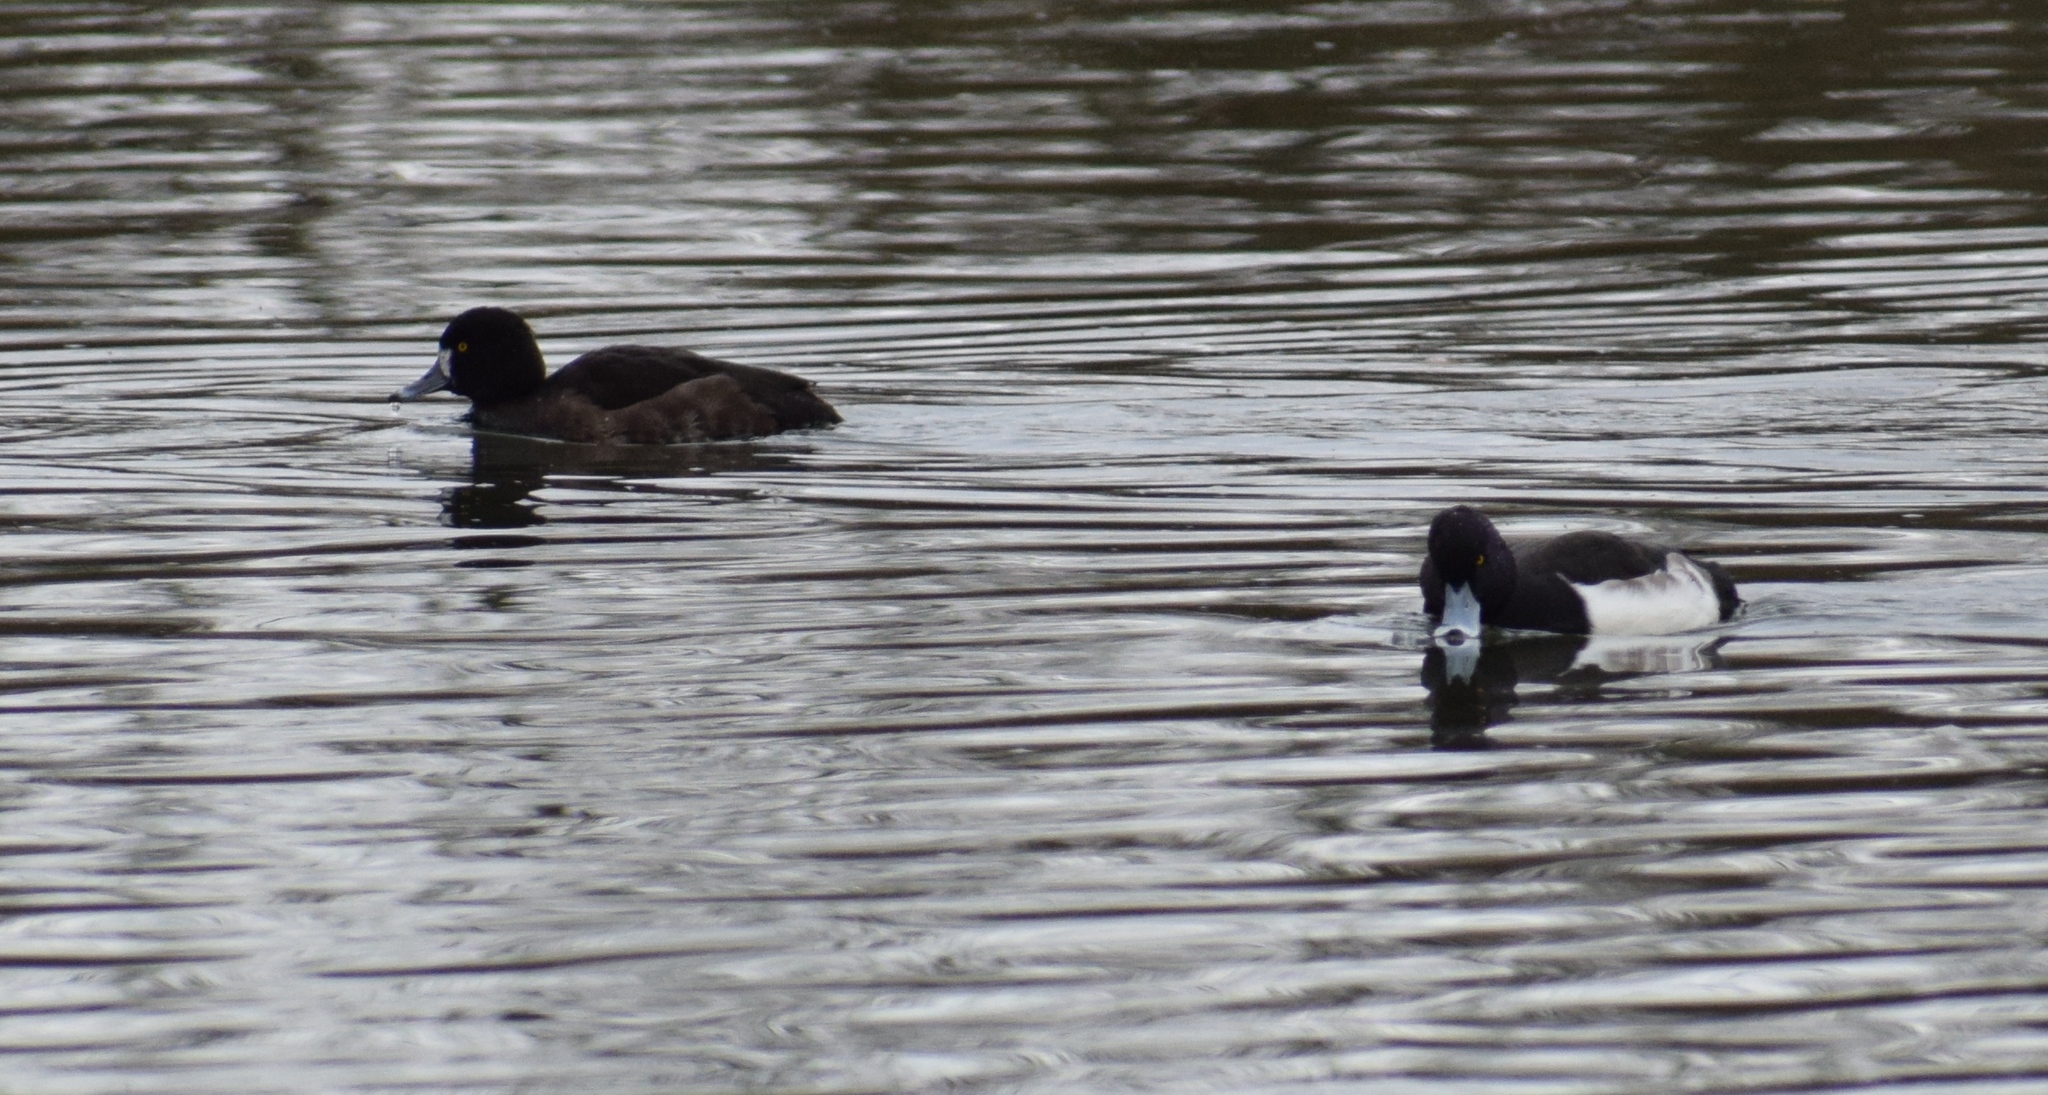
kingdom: Animalia
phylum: Chordata
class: Aves
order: Anseriformes
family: Anatidae
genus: Aythya
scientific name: Aythya fuligula
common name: Tufted duck
